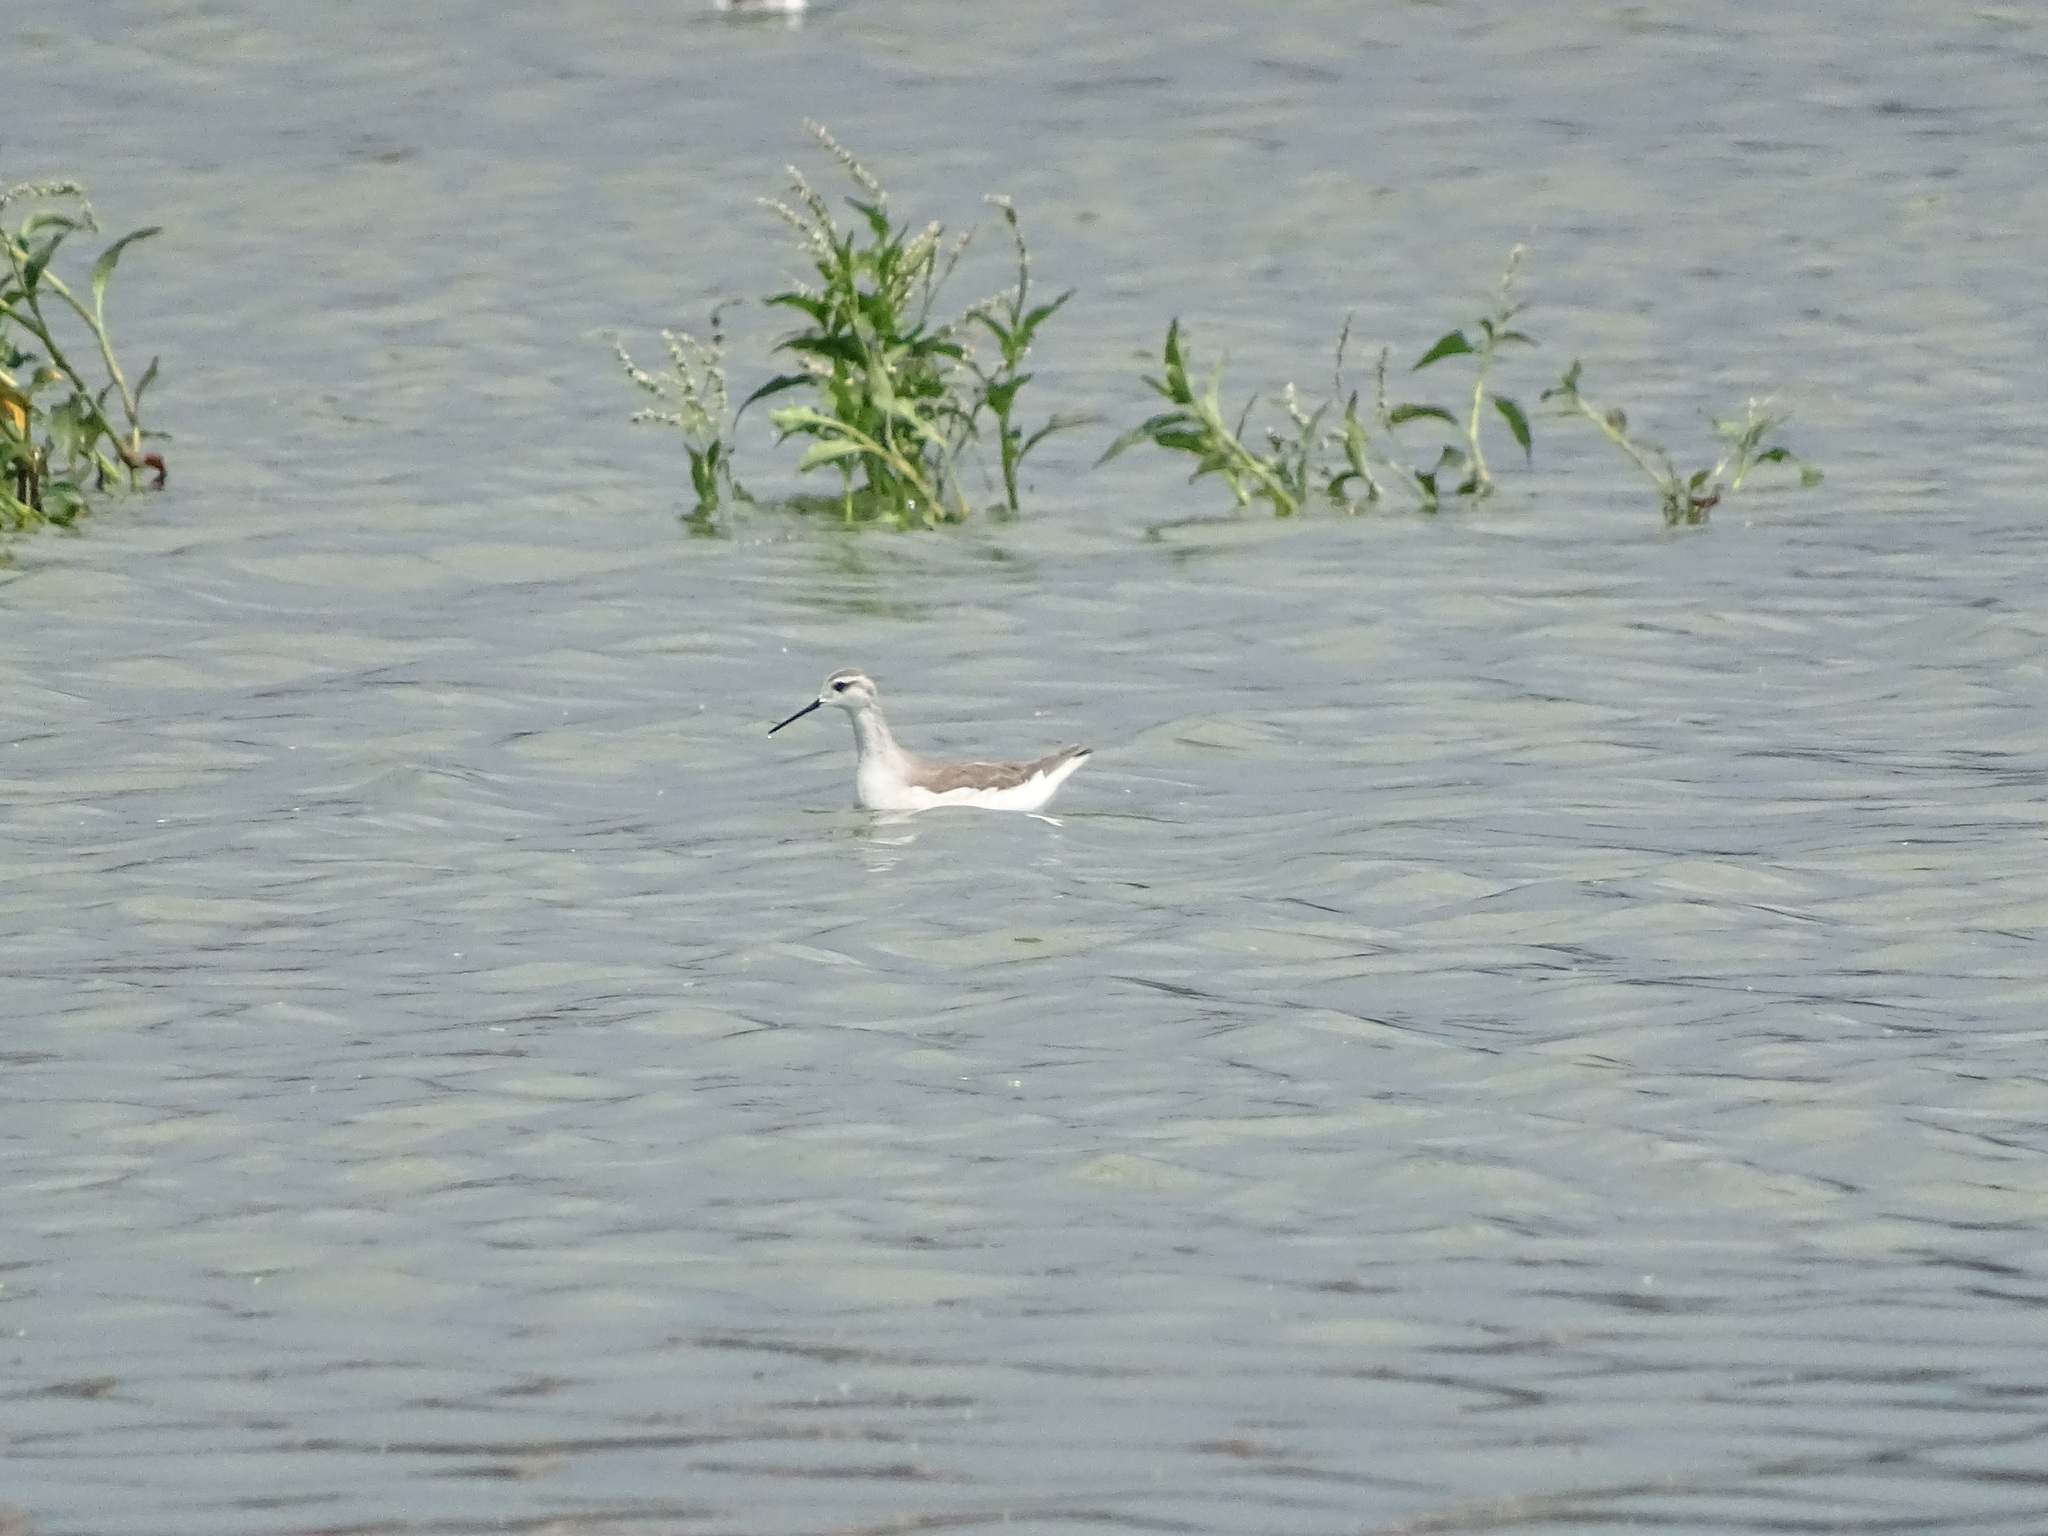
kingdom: Animalia
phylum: Chordata
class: Aves
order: Charadriiformes
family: Scolopacidae
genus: Phalaropus
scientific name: Phalaropus tricolor
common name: Wilson's phalarope
